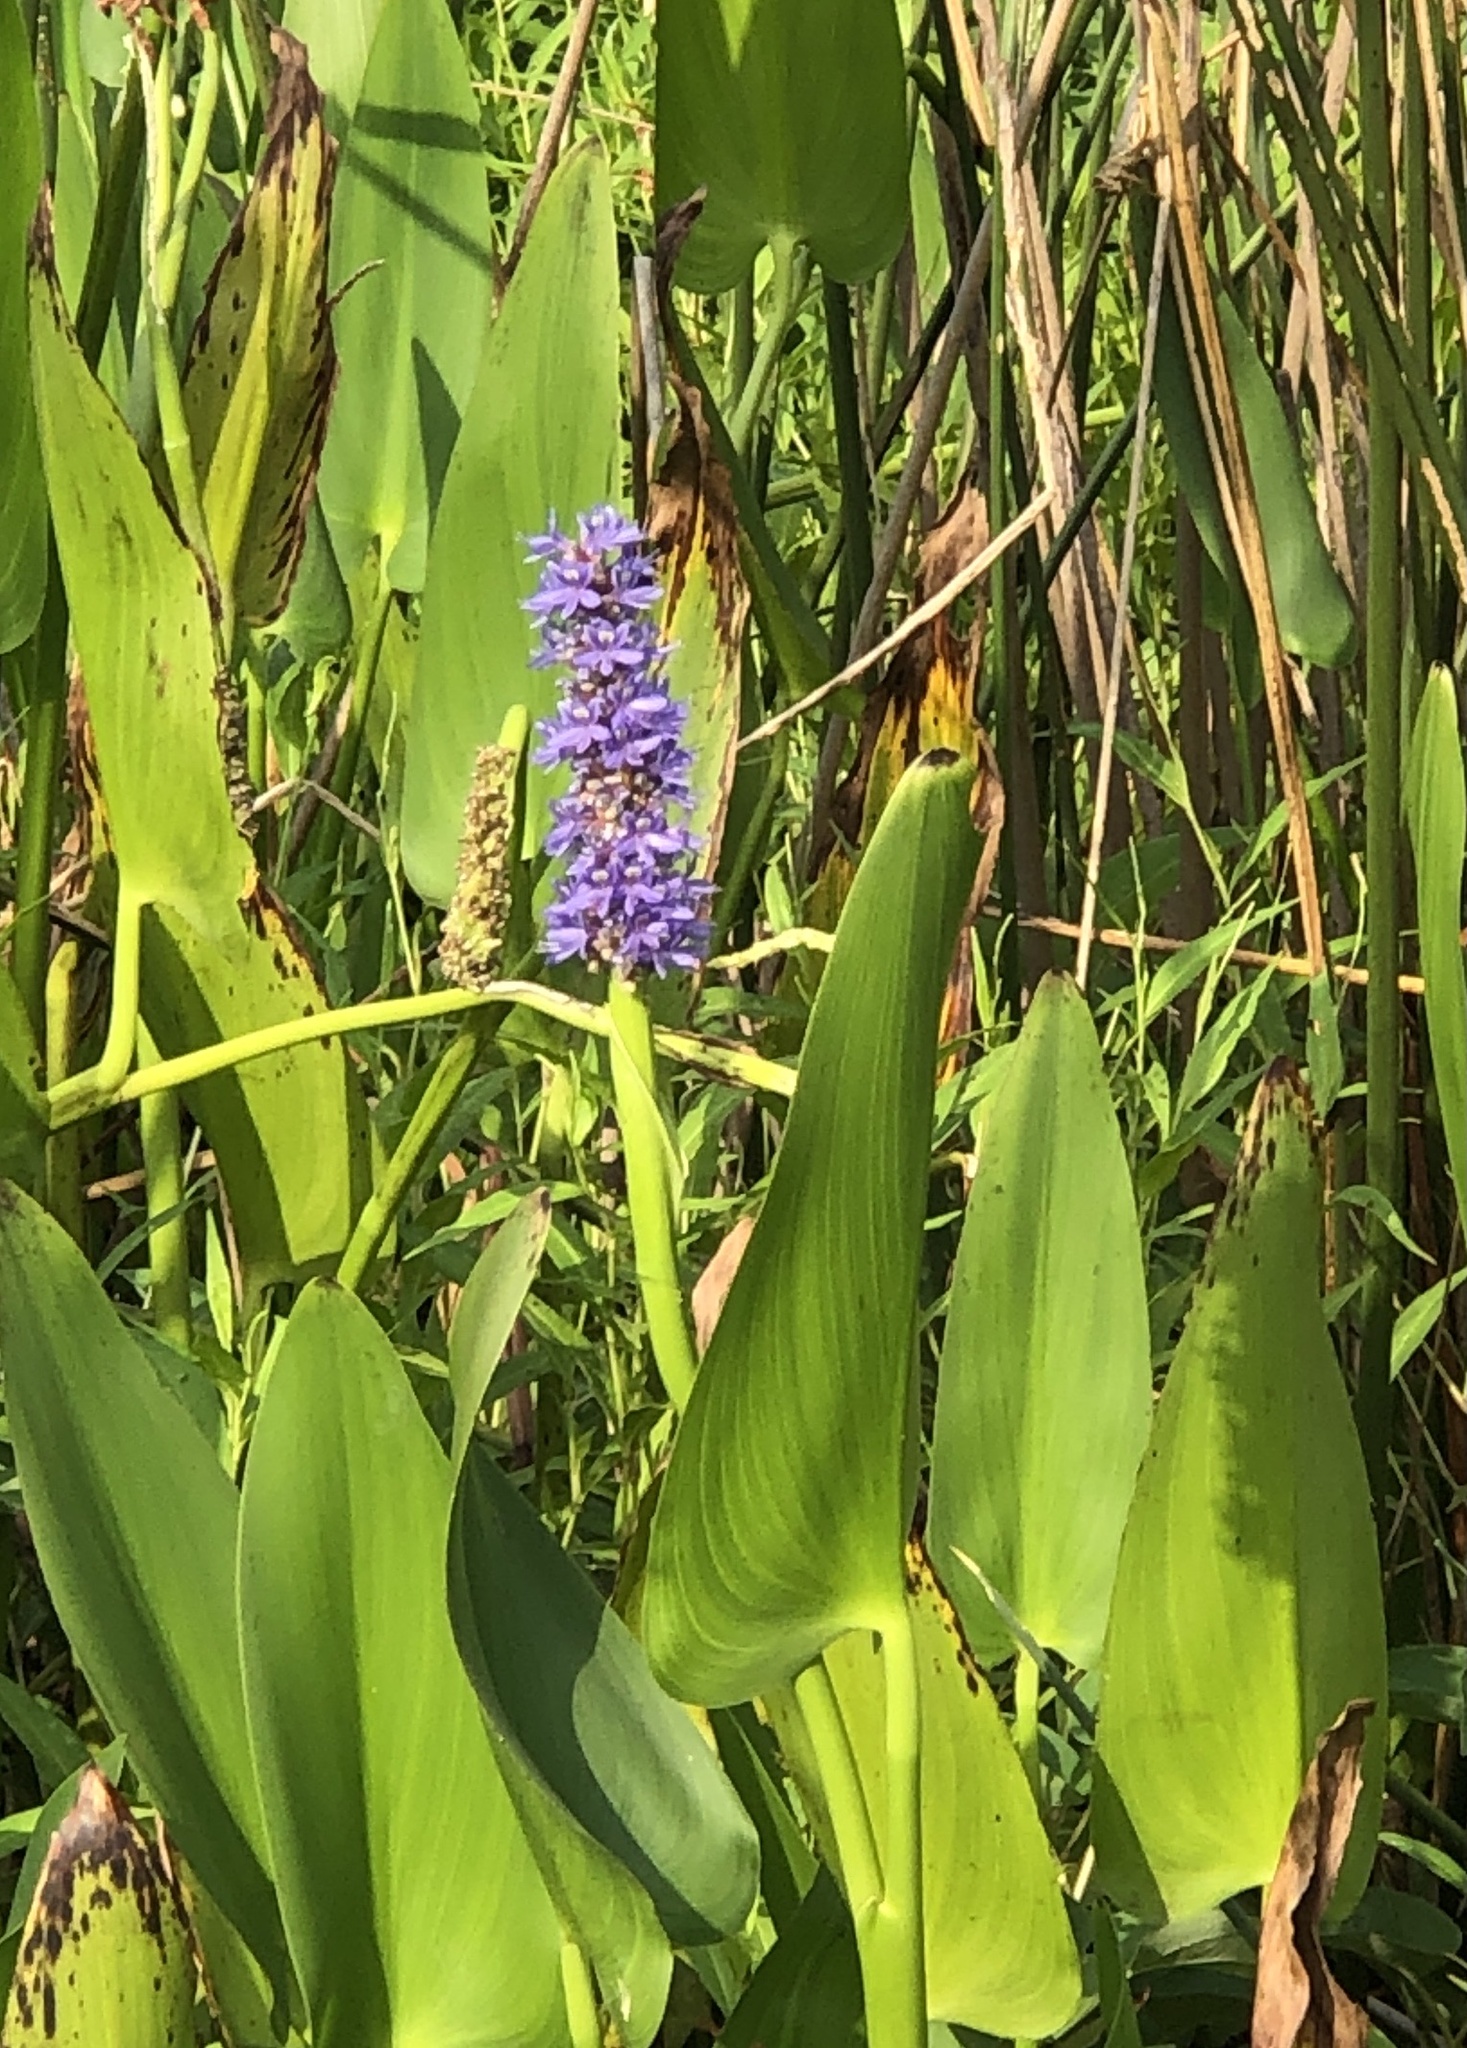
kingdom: Plantae
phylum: Tracheophyta
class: Liliopsida
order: Commelinales
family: Pontederiaceae
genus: Pontederia
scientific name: Pontederia cordata
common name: Pickerelweed
